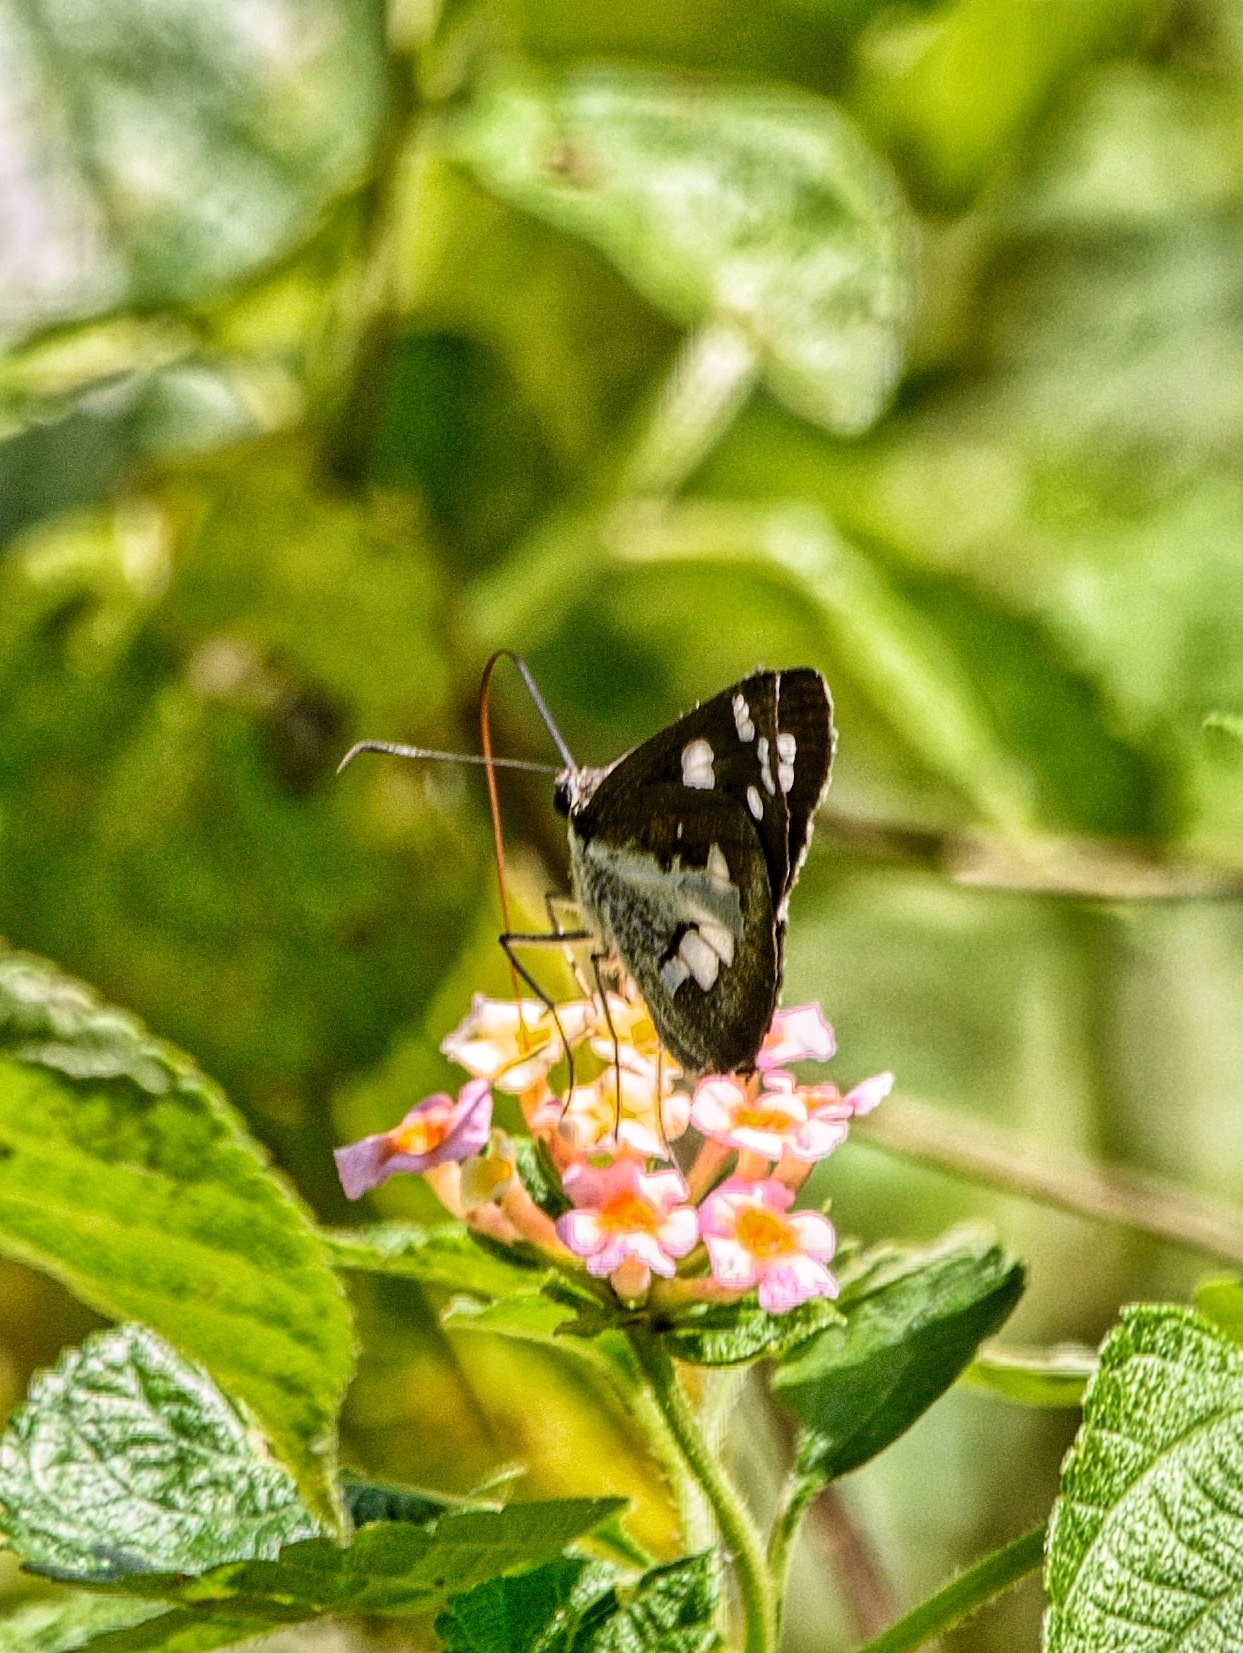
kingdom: Animalia
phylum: Arthropoda
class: Insecta
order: Lepidoptera
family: Hesperiidae
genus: Udaspes
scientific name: Udaspes folus
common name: Grass demon
